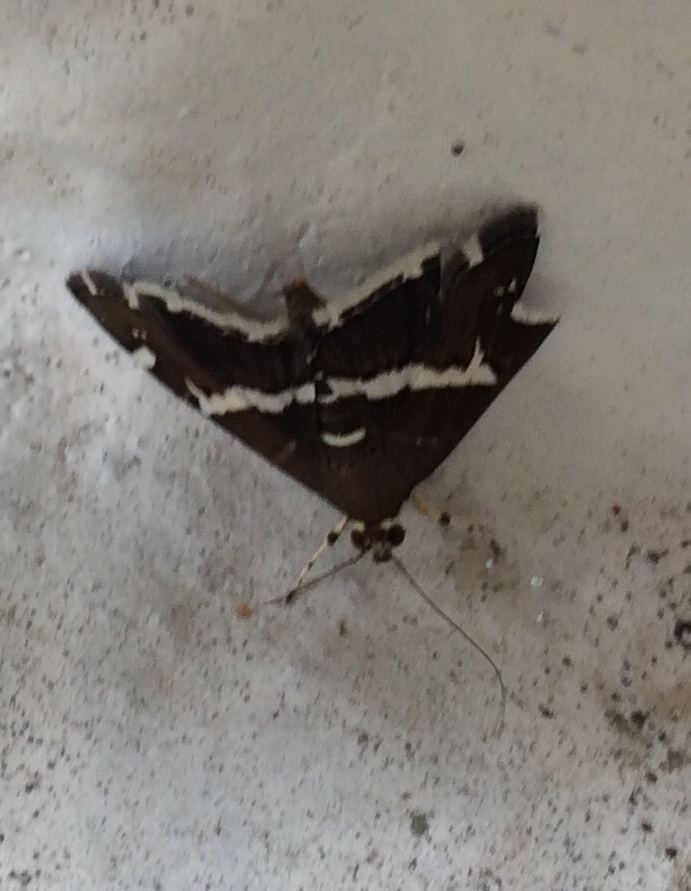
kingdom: Animalia
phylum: Arthropoda
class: Insecta
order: Lepidoptera
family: Crambidae
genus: Spoladea
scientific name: Spoladea recurvalis
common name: Beet webworm moth
